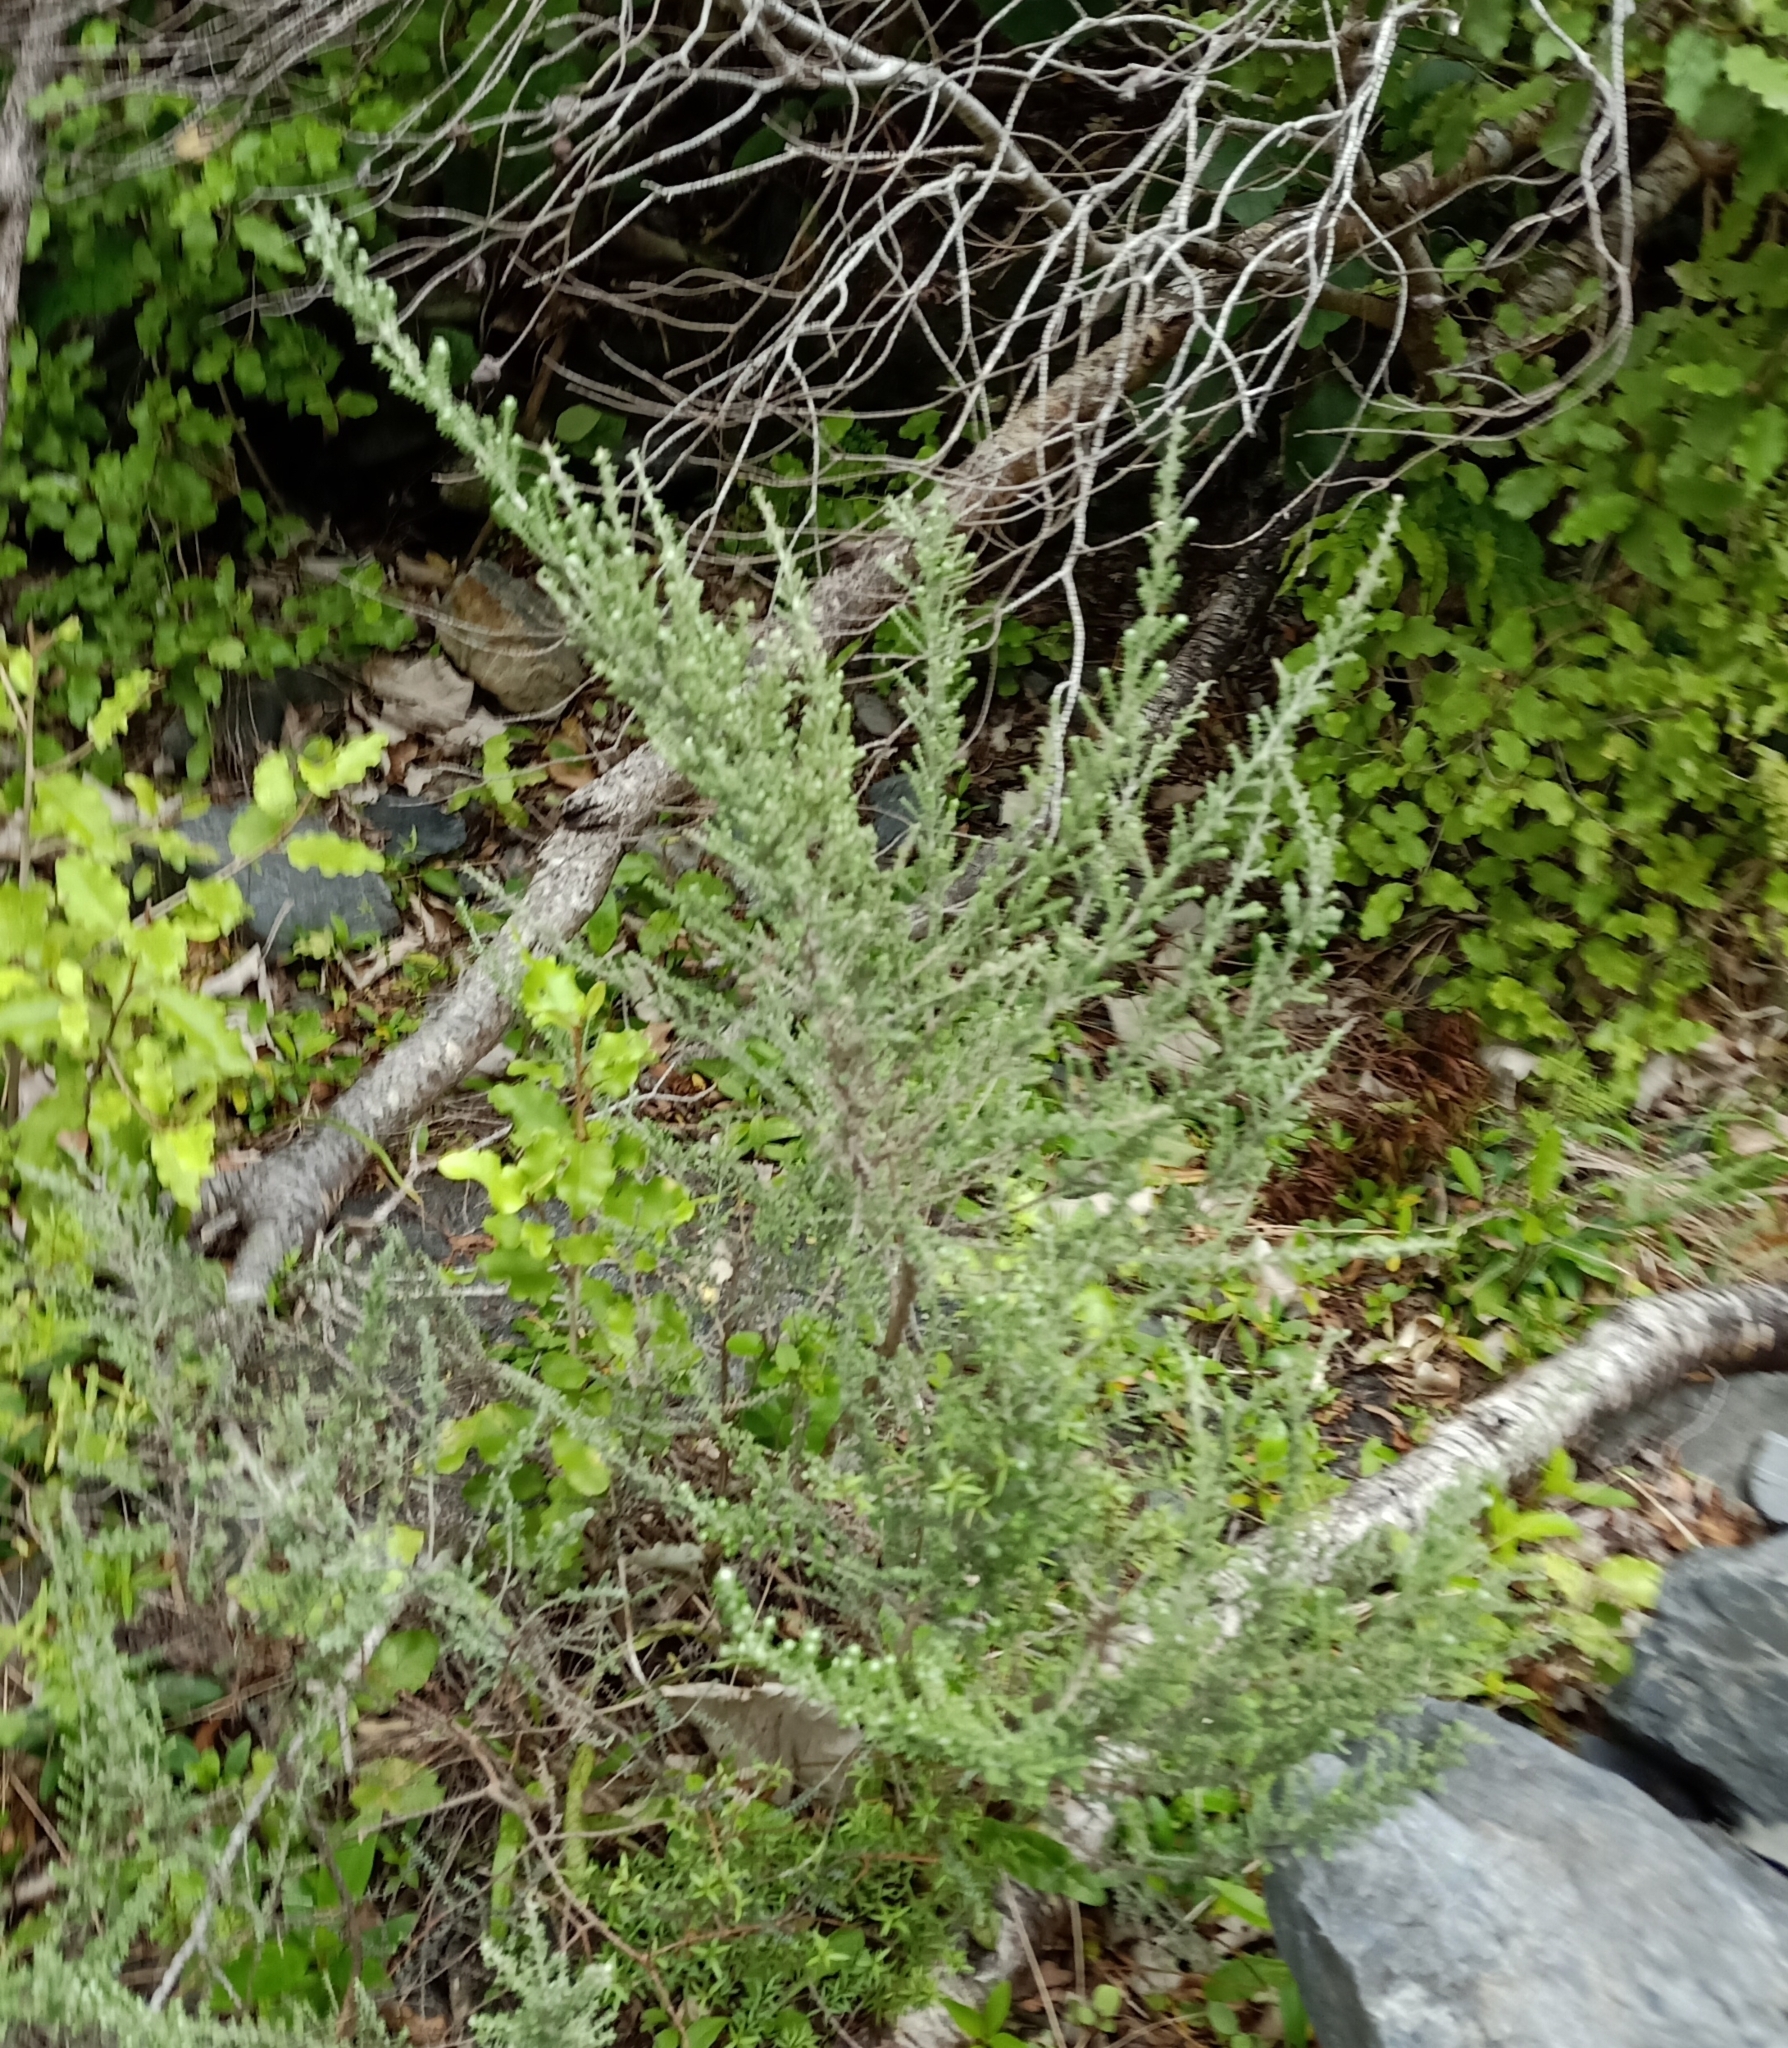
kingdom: Plantae
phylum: Tracheophyta
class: Magnoliopsida
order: Asterales
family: Asteraceae
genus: Ozothamnus
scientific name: Ozothamnus leptophyllus
